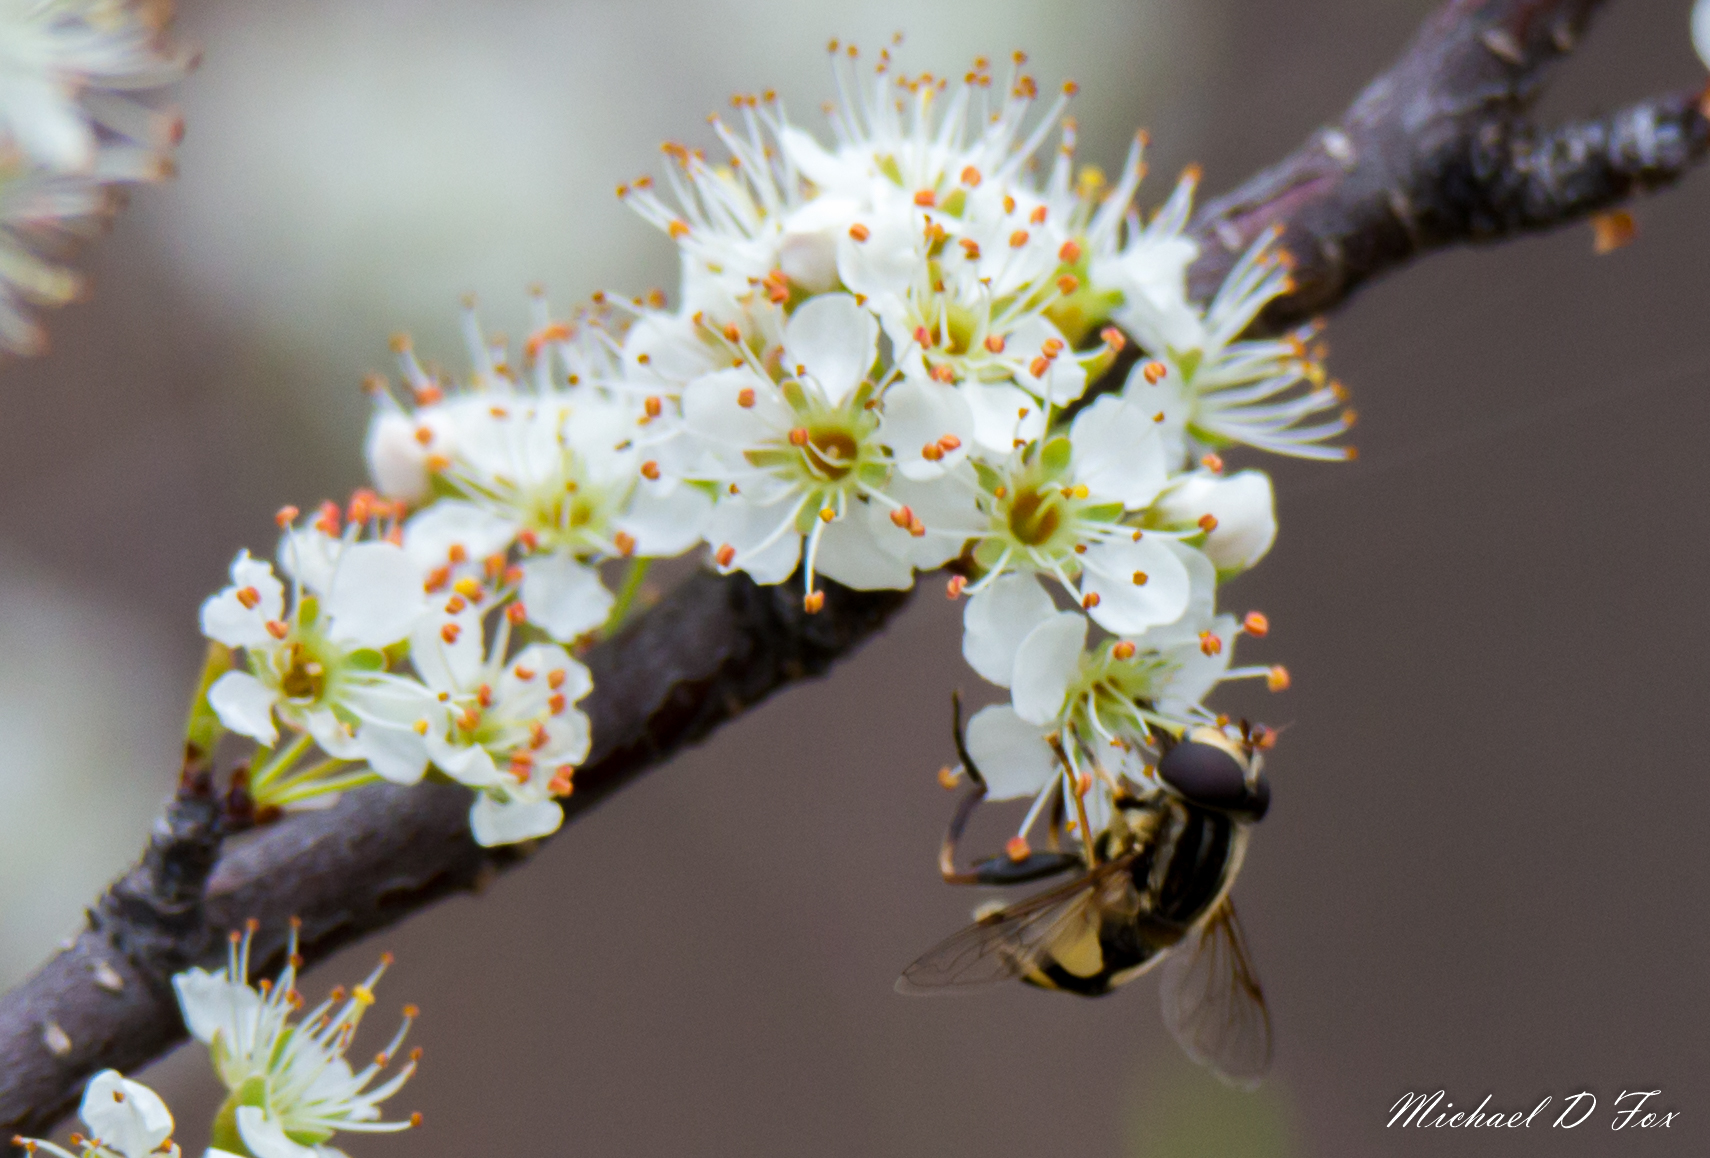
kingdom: Animalia
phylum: Arthropoda
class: Insecta
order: Diptera
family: Syrphidae
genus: Helophilus
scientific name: Helophilus fasciatus
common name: Narrow-headed marsh fly
